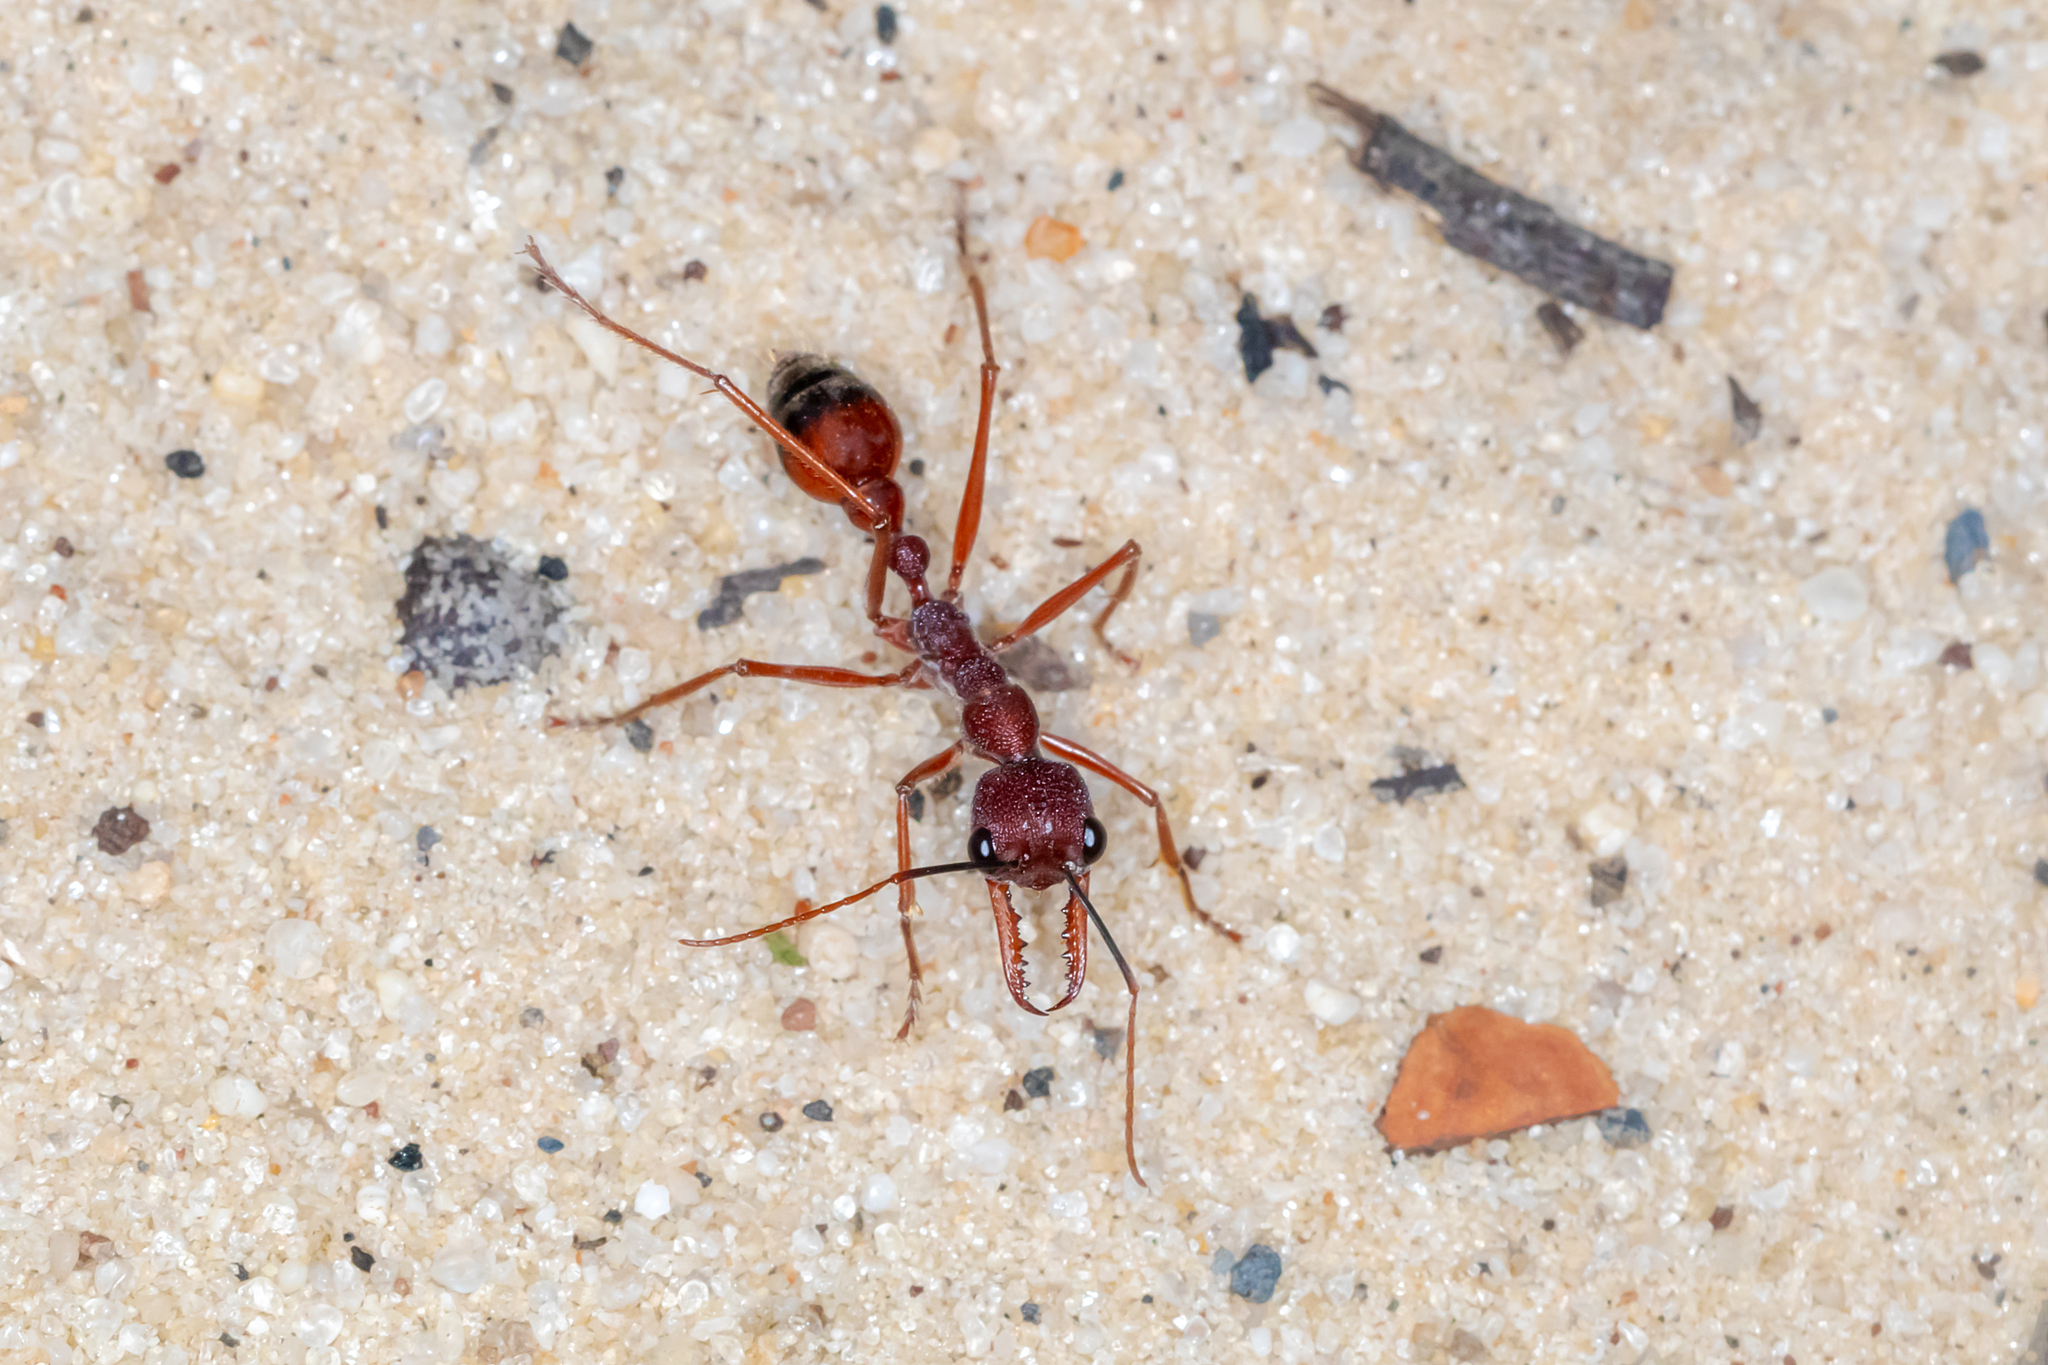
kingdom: Animalia
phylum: Arthropoda
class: Insecta
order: Hymenoptera
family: Formicidae
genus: Myrmecia
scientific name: Myrmecia nigriscapa
